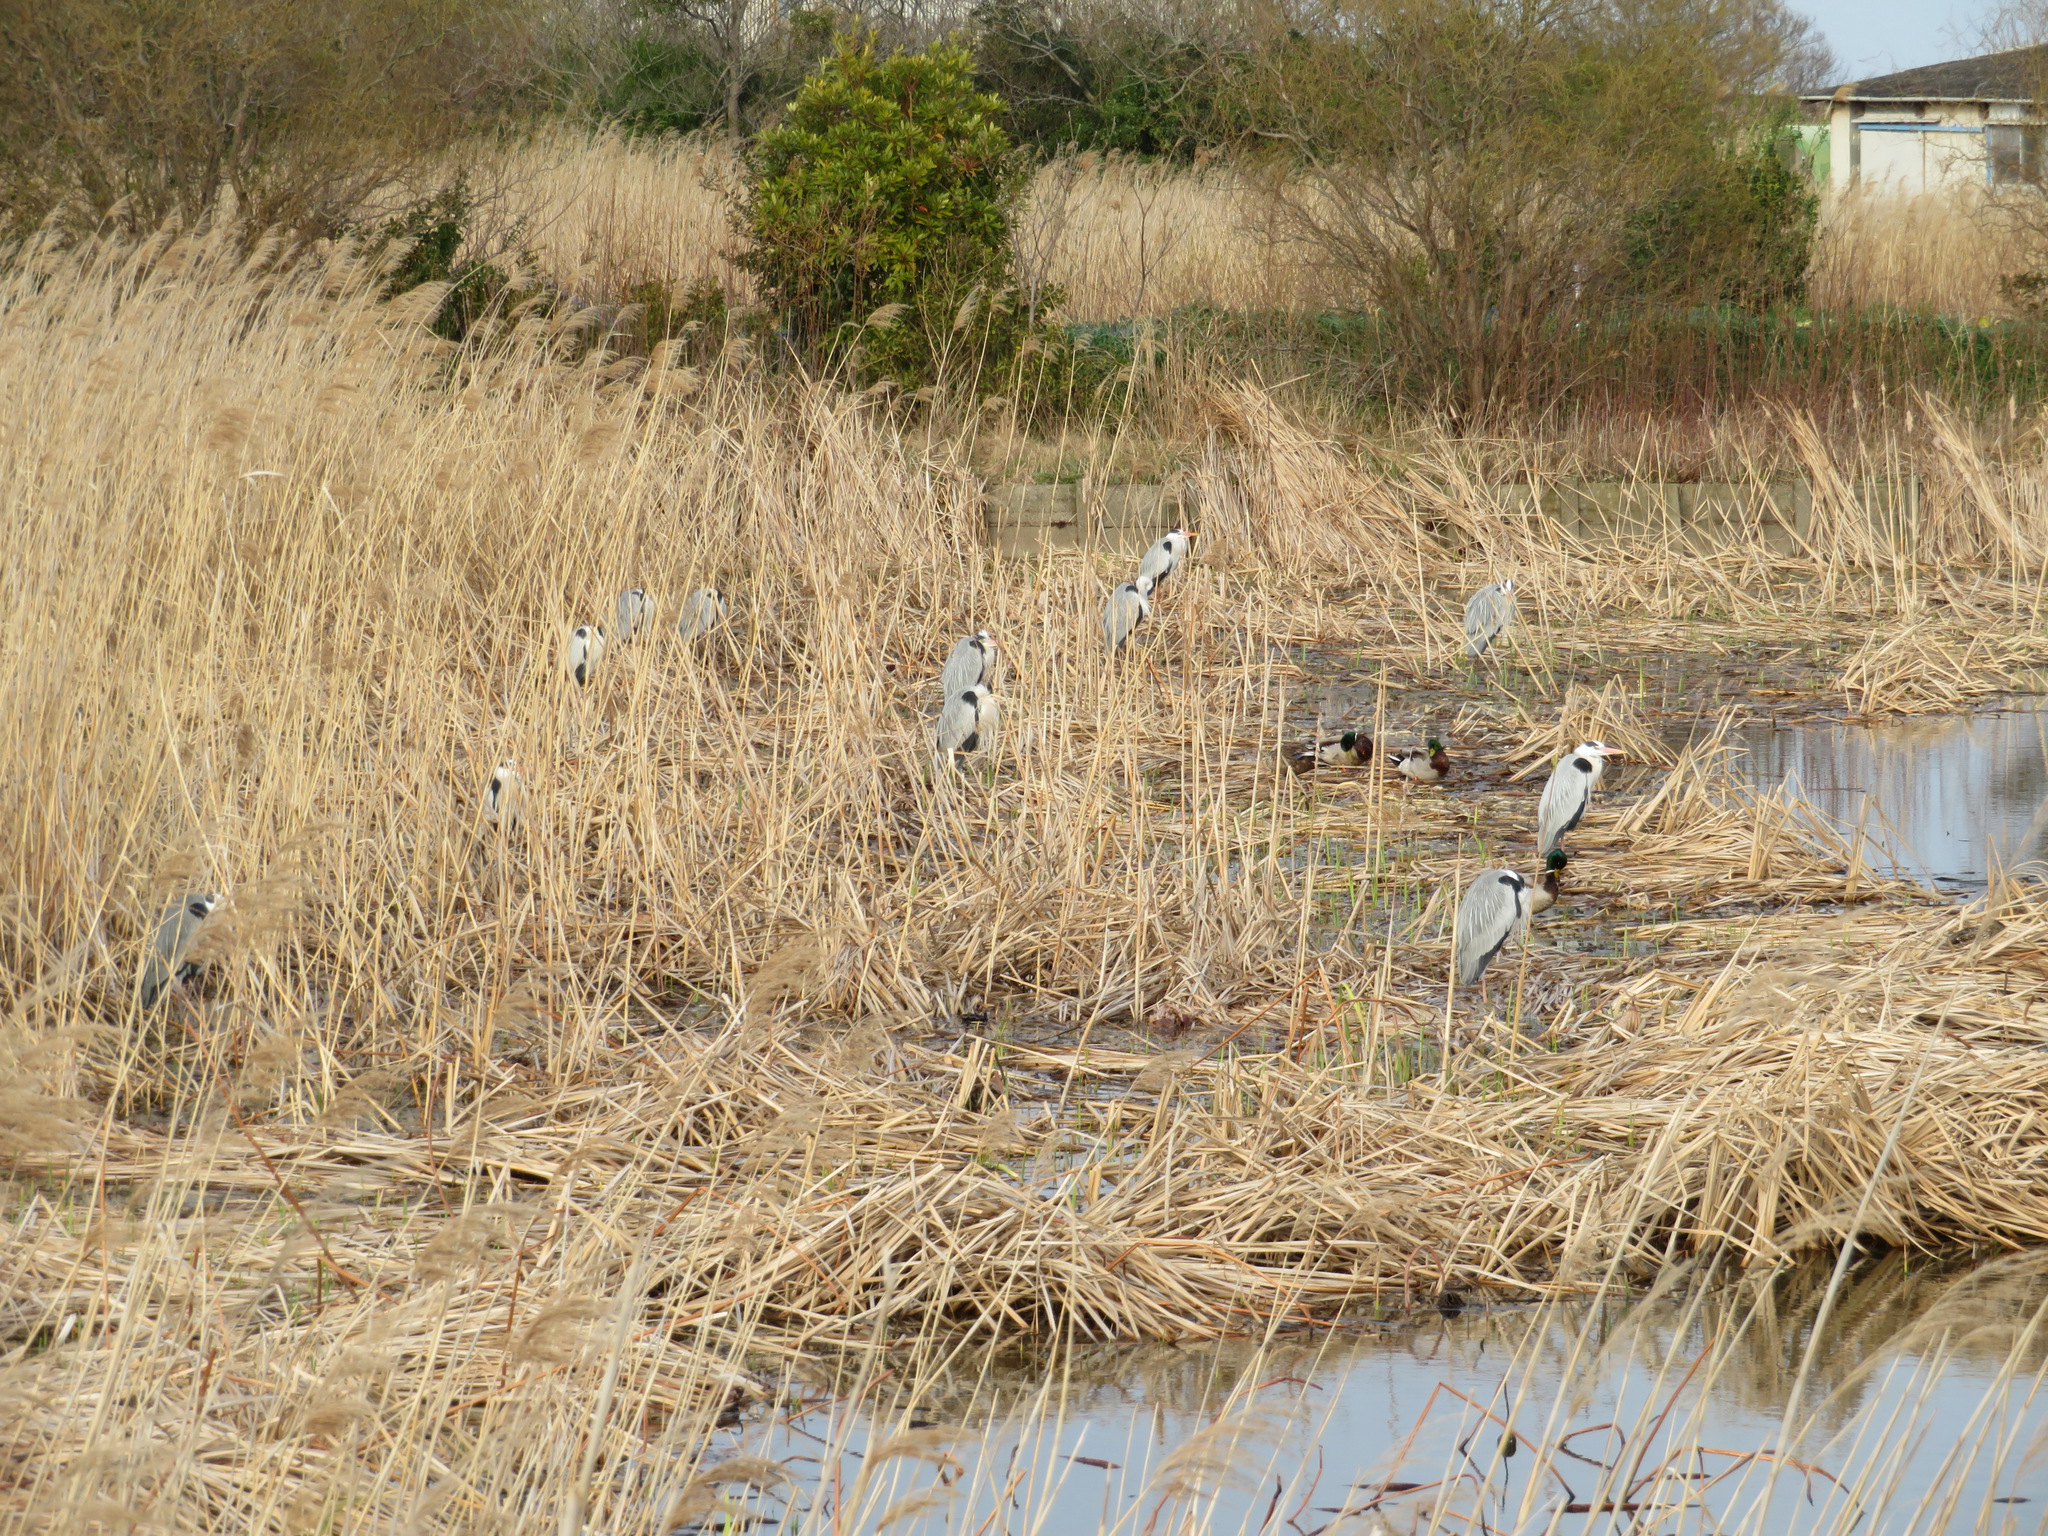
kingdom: Animalia
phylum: Chordata
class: Aves
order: Pelecaniformes
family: Ardeidae
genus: Ardea
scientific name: Ardea cinerea
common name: Grey heron
